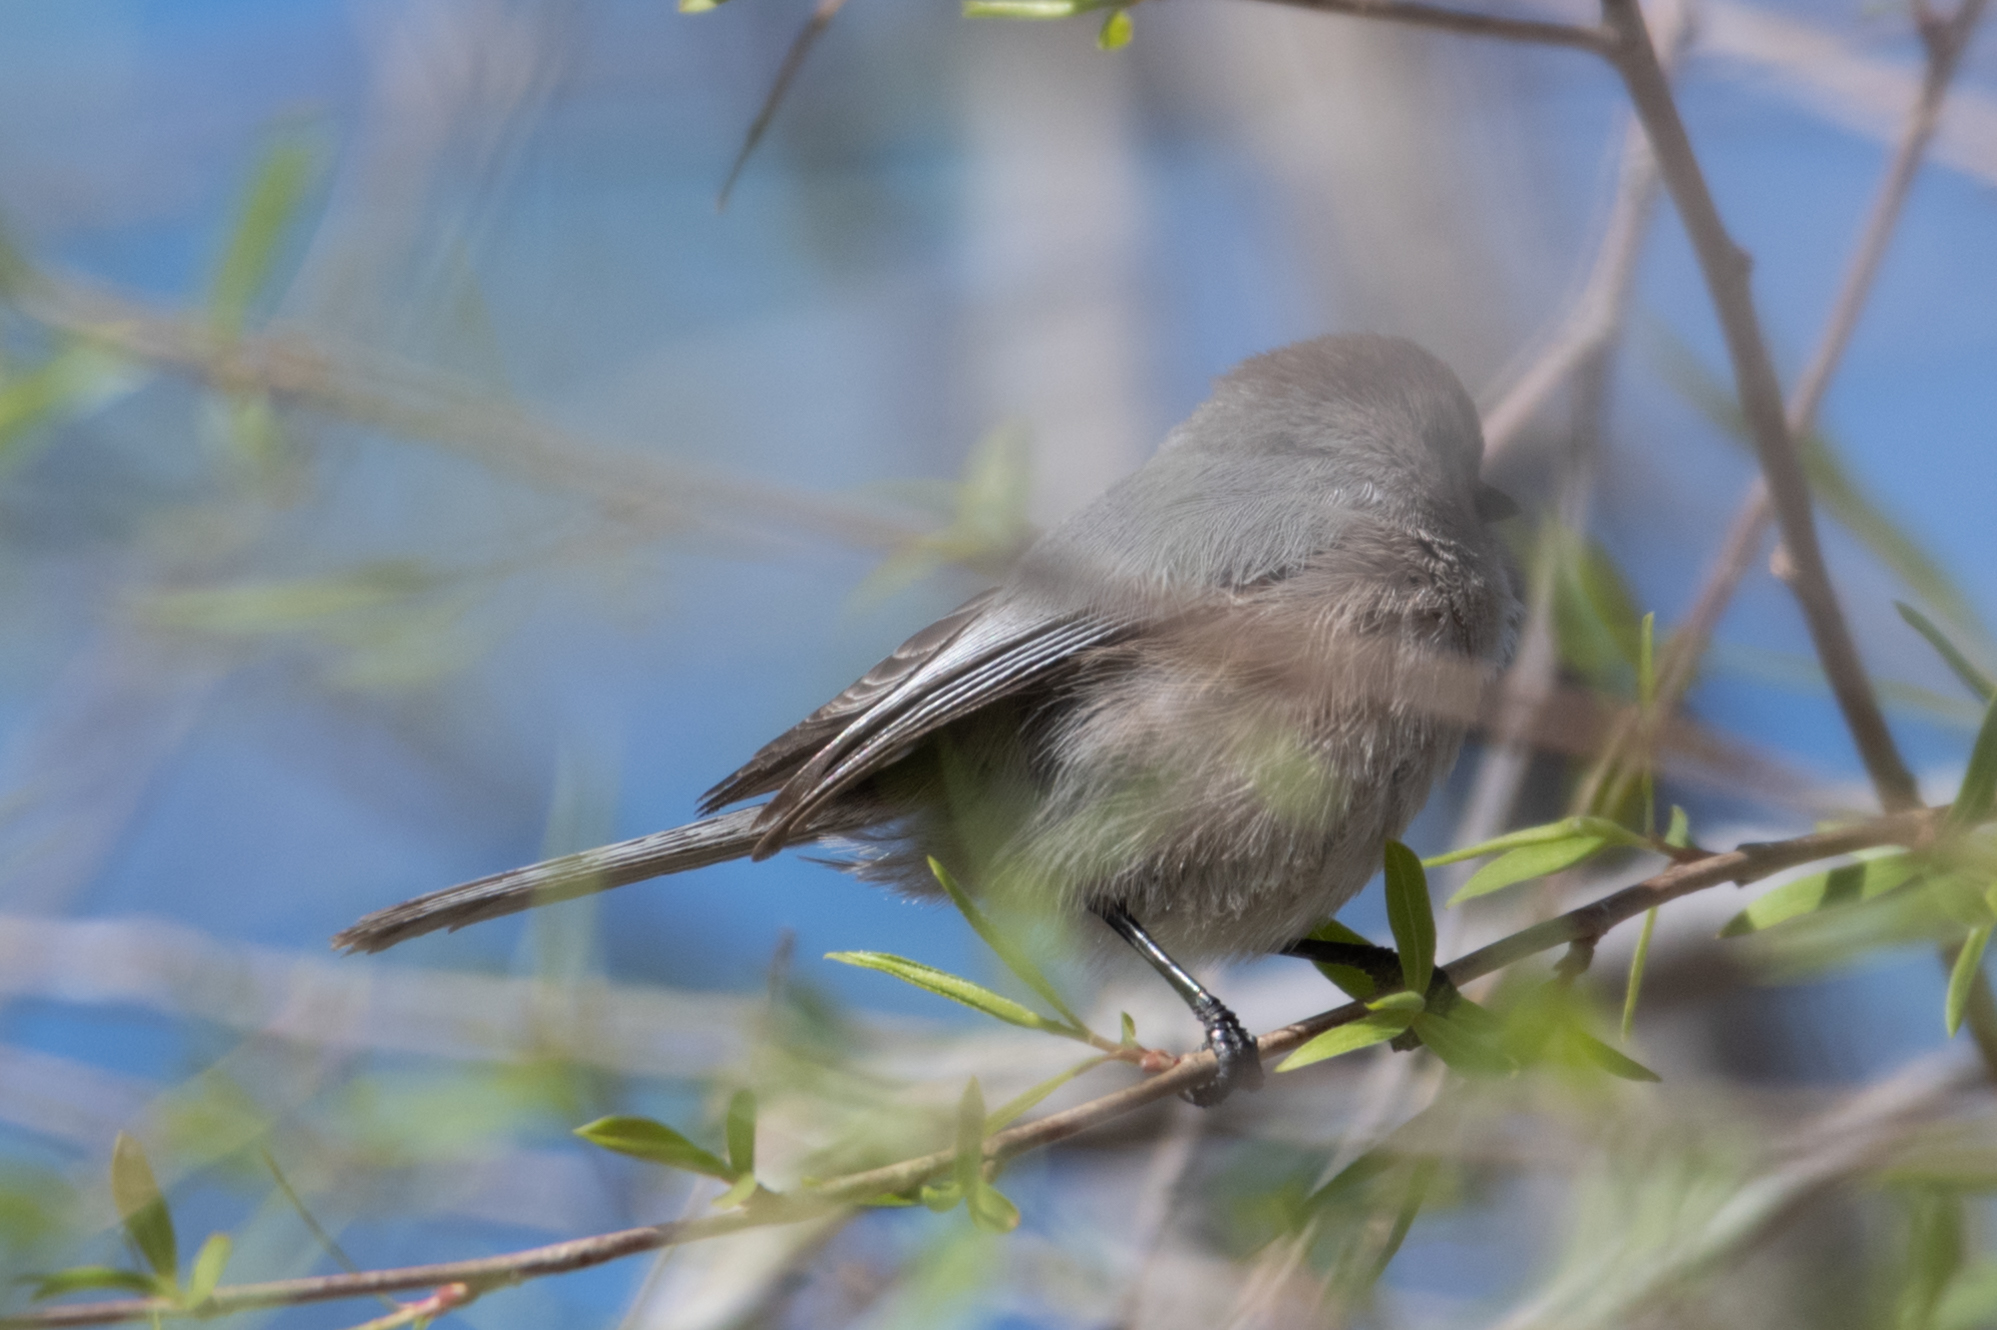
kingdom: Animalia
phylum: Chordata
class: Aves
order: Passeriformes
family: Aegithalidae
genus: Psaltriparus
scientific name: Psaltriparus minimus
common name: American bushtit
